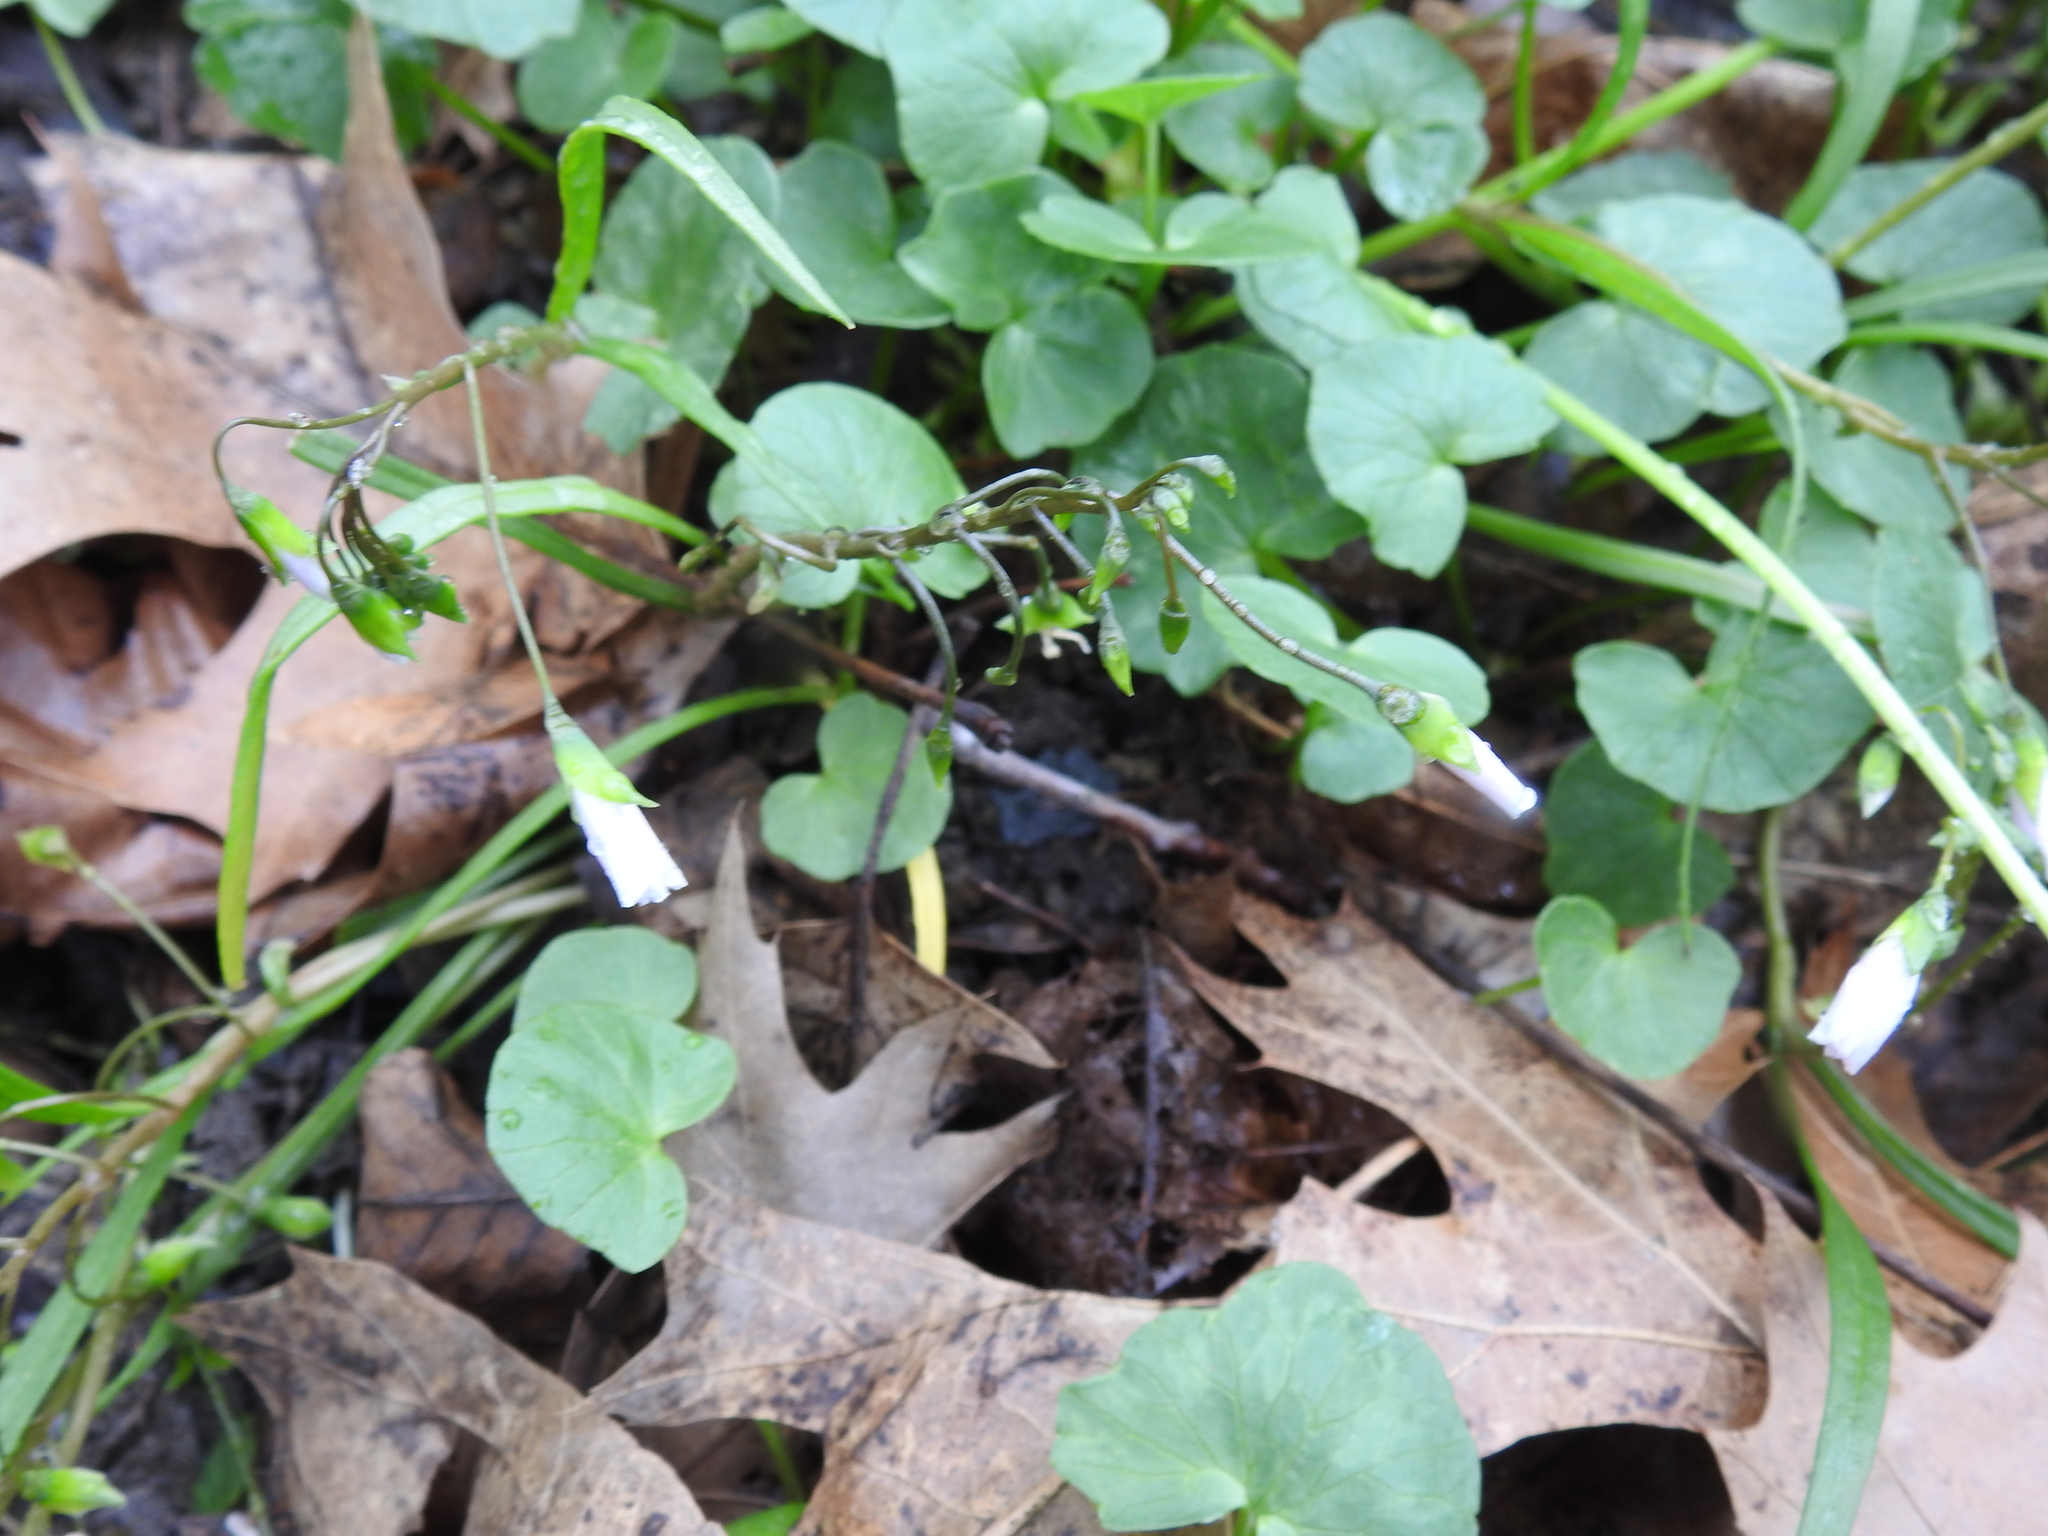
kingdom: Plantae
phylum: Tracheophyta
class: Magnoliopsida
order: Caryophyllales
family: Montiaceae
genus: Claytonia
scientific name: Claytonia virginica
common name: Virginia springbeauty
